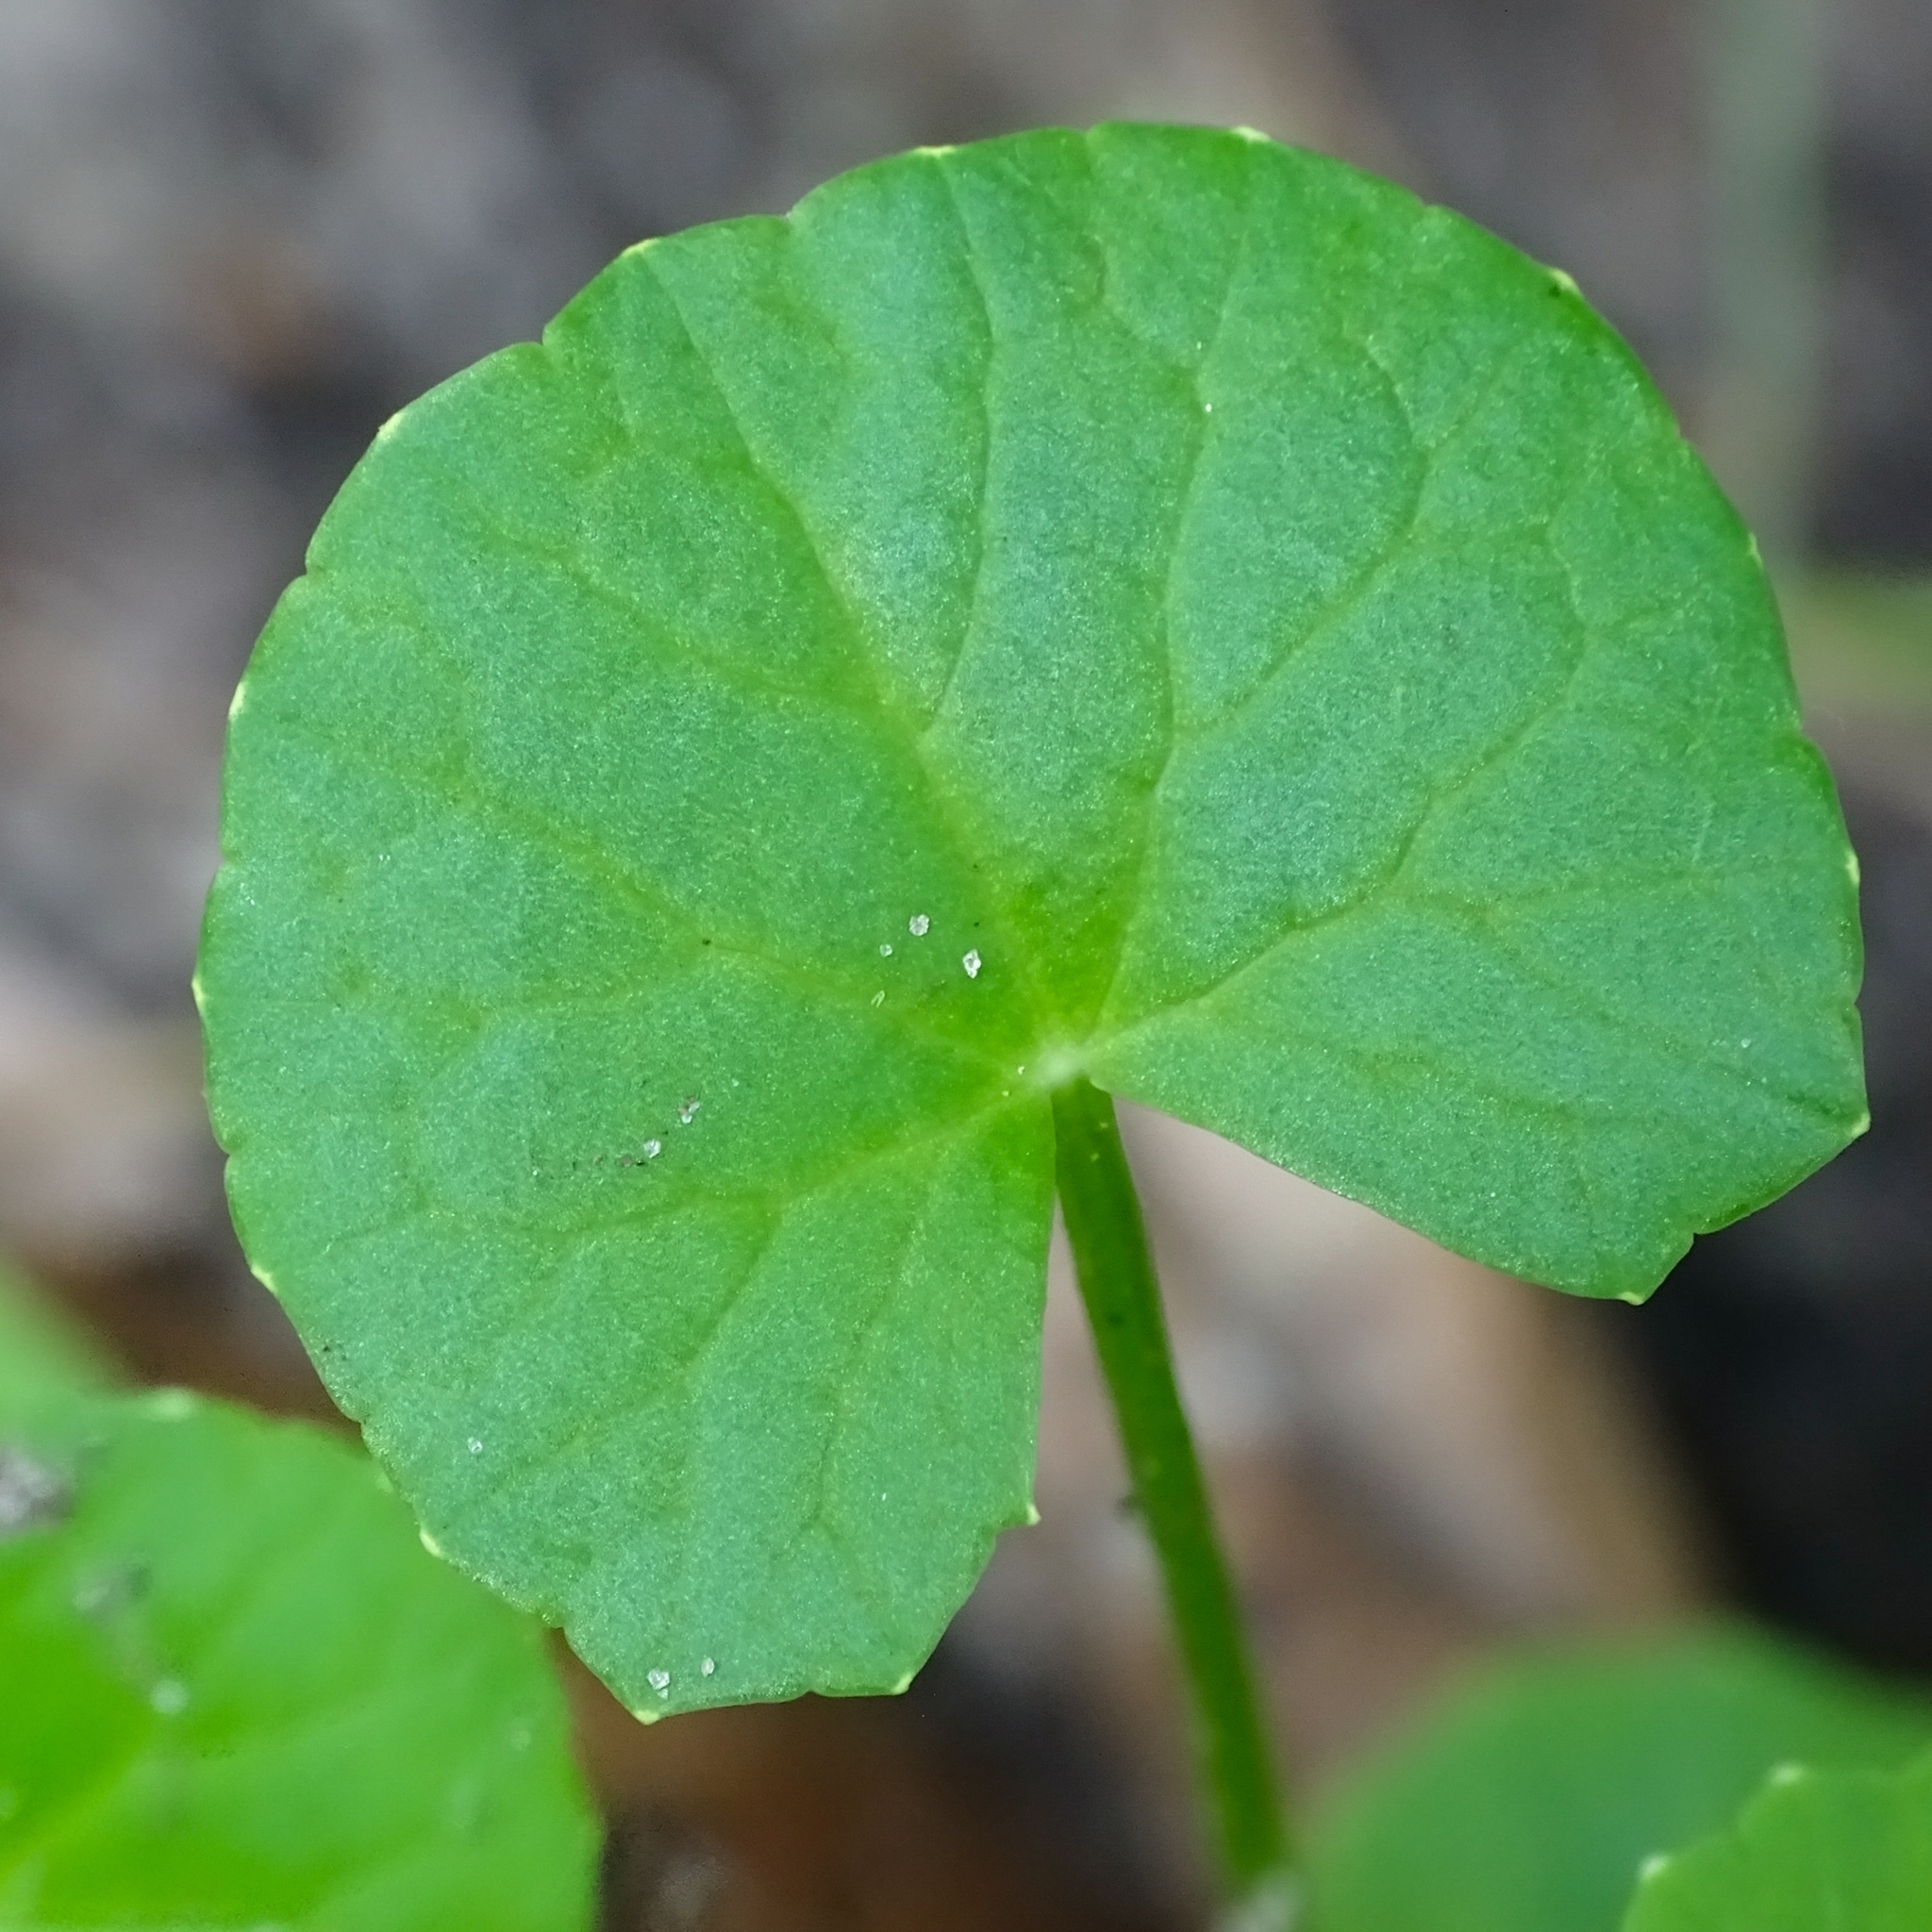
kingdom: Plantae
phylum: Tracheophyta
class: Magnoliopsida
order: Apiales
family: Apiaceae
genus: Centella
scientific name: Centella asiatica
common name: Spadeleaf
